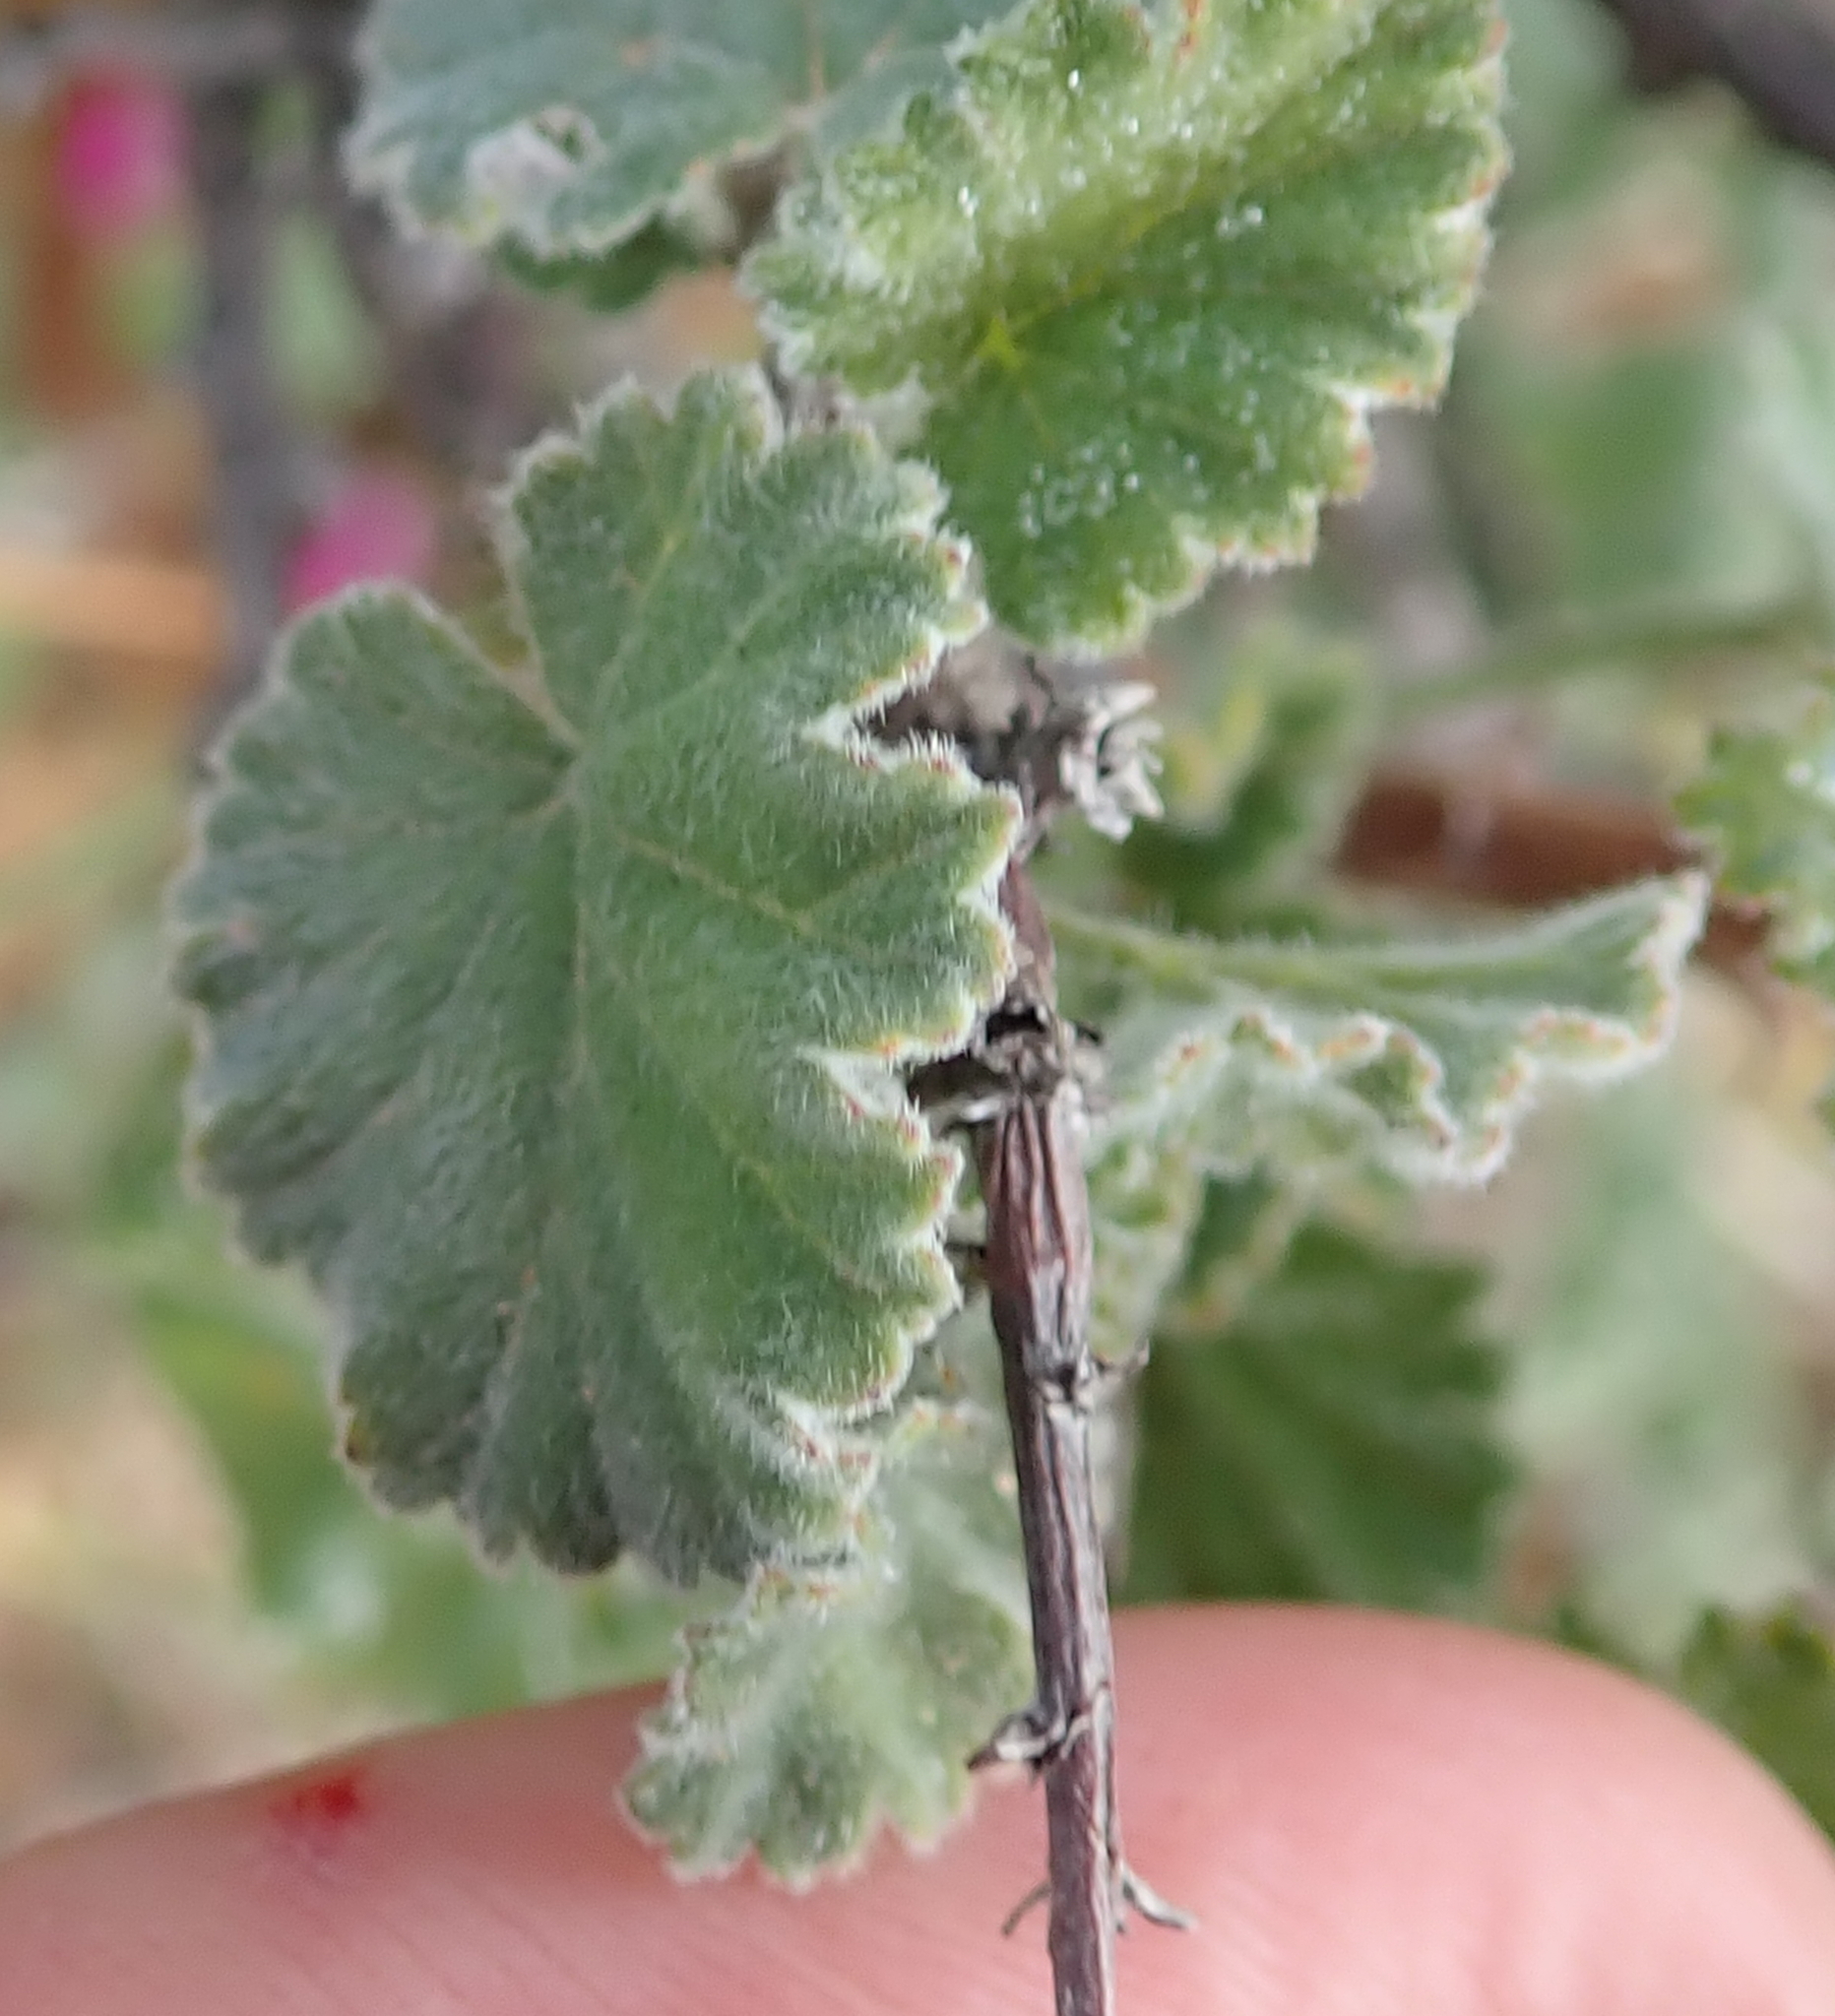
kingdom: Plantae
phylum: Tracheophyta
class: Magnoliopsida
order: Geraniales
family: Geraniaceae
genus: Pelargonium
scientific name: Pelargonium magenteum
